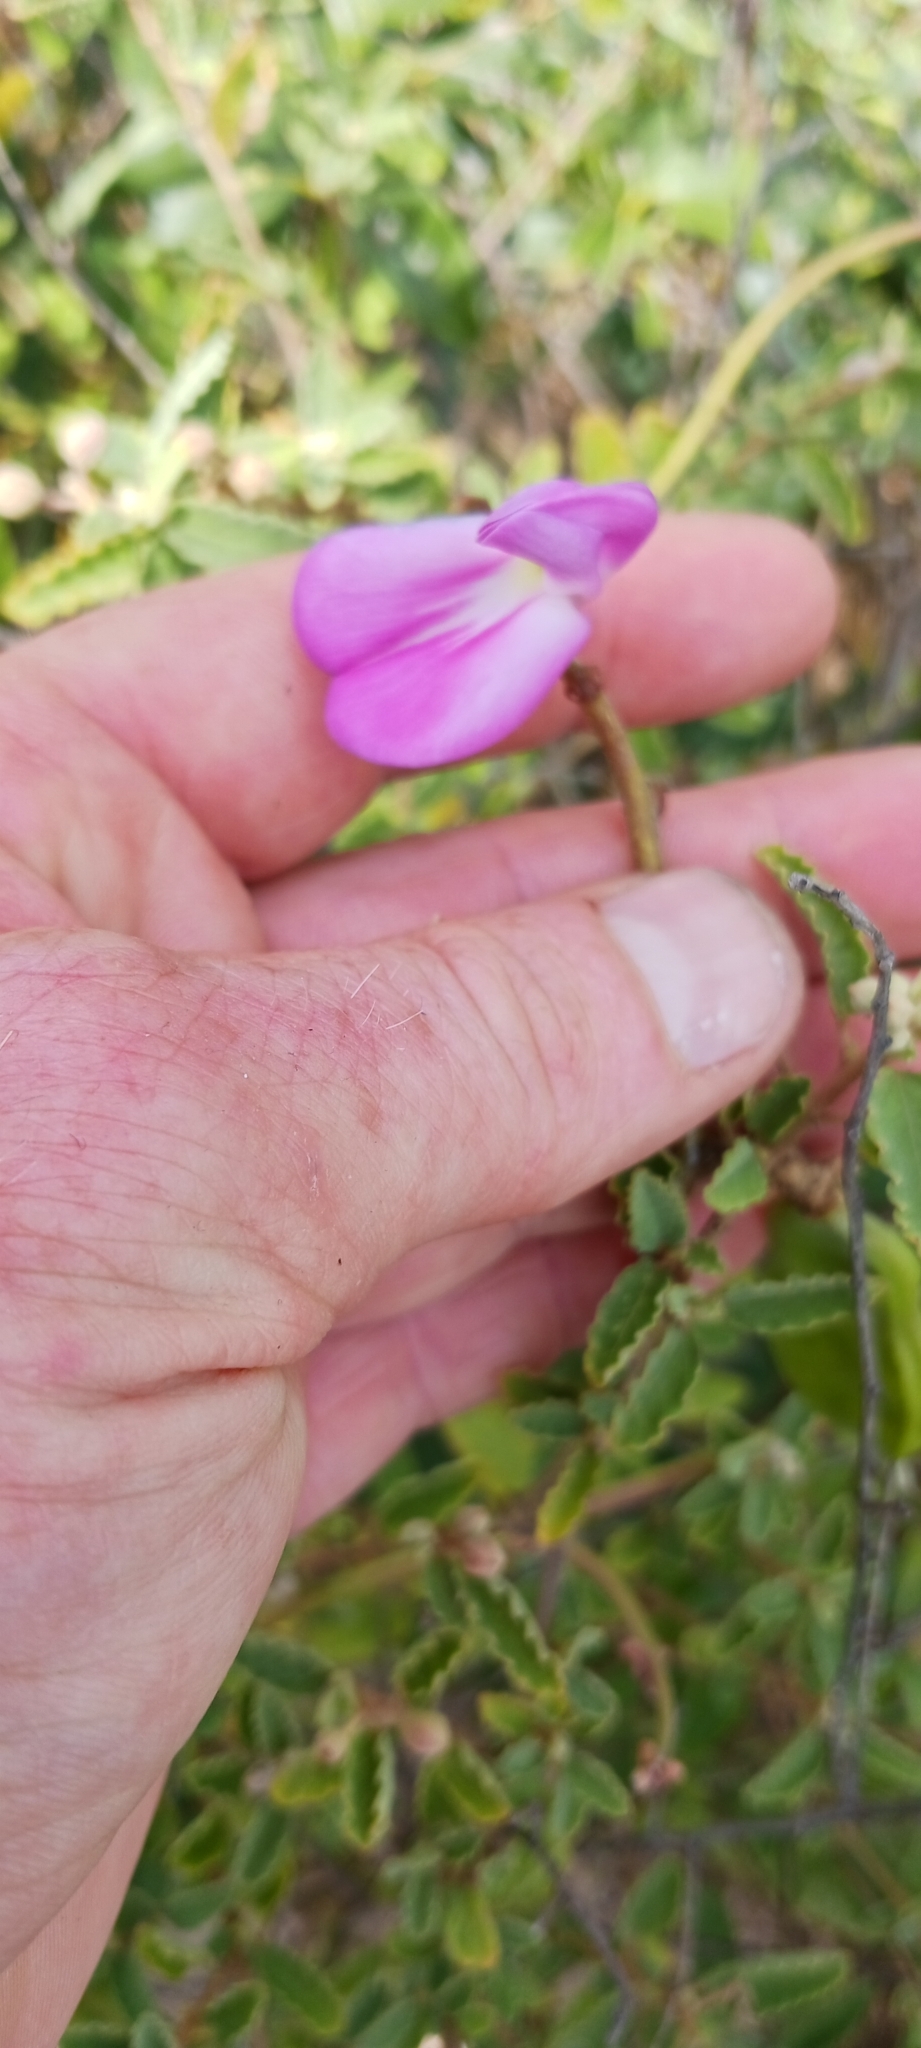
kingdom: Plantae
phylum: Tracheophyta
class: Magnoliopsida
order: Fabales
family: Fabaceae
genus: Canavalia
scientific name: Canavalia rosea
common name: Beach-bean
